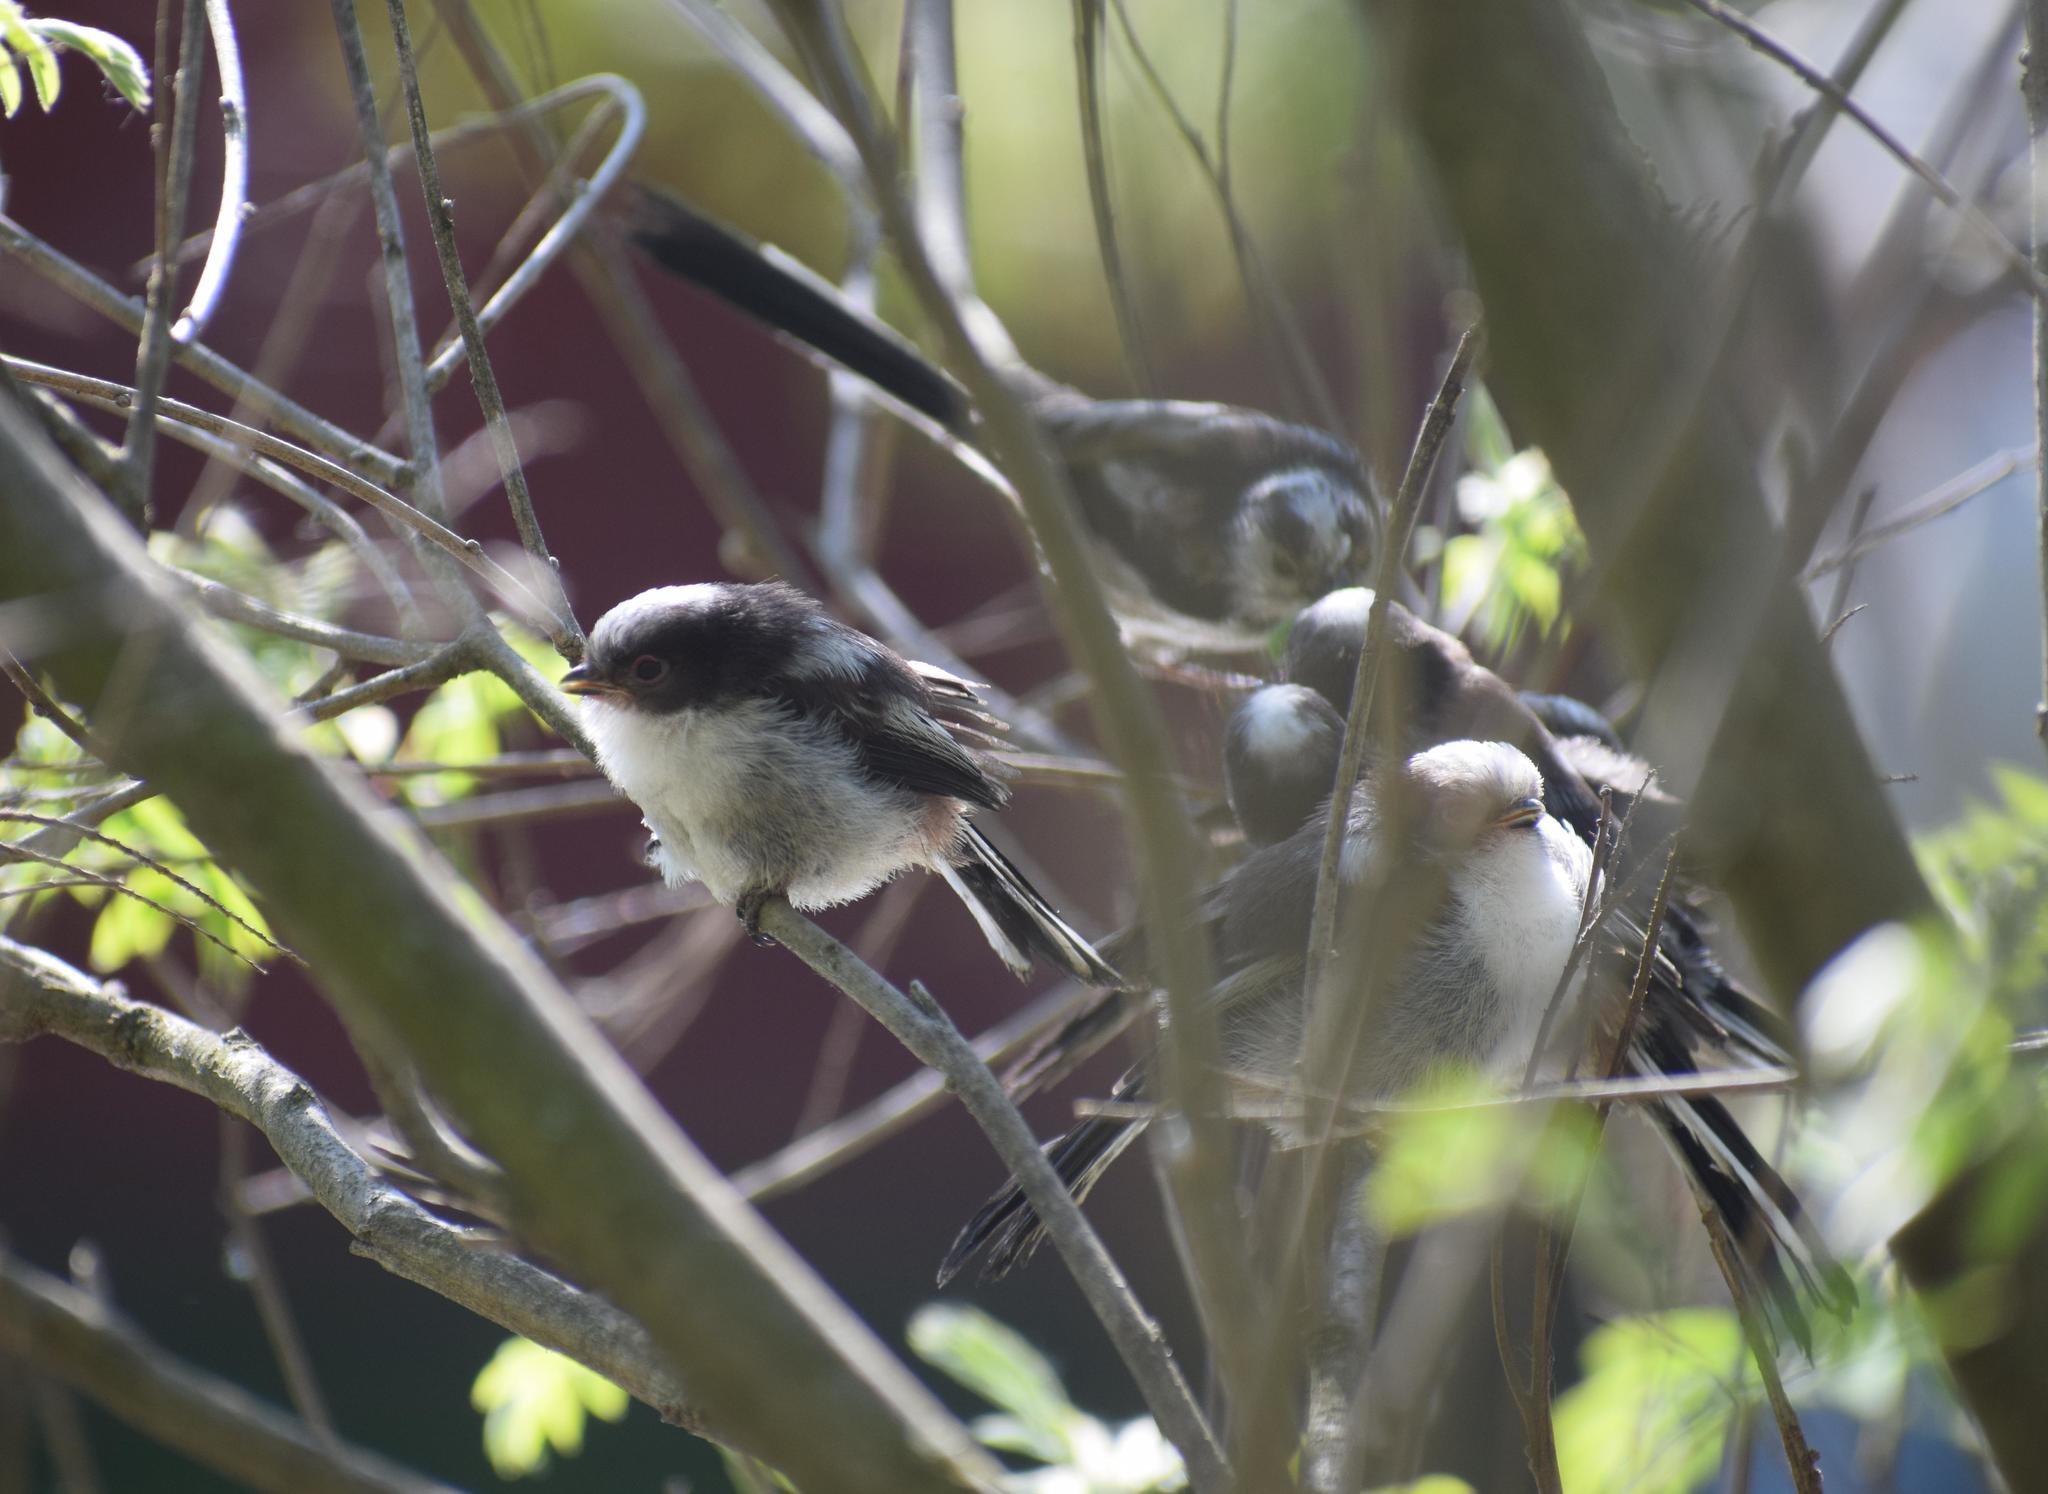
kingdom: Animalia
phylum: Chordata
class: Aves
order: Passeriformes
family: Aegithalidae
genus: Aegithalos
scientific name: Aegithalos caudatus
